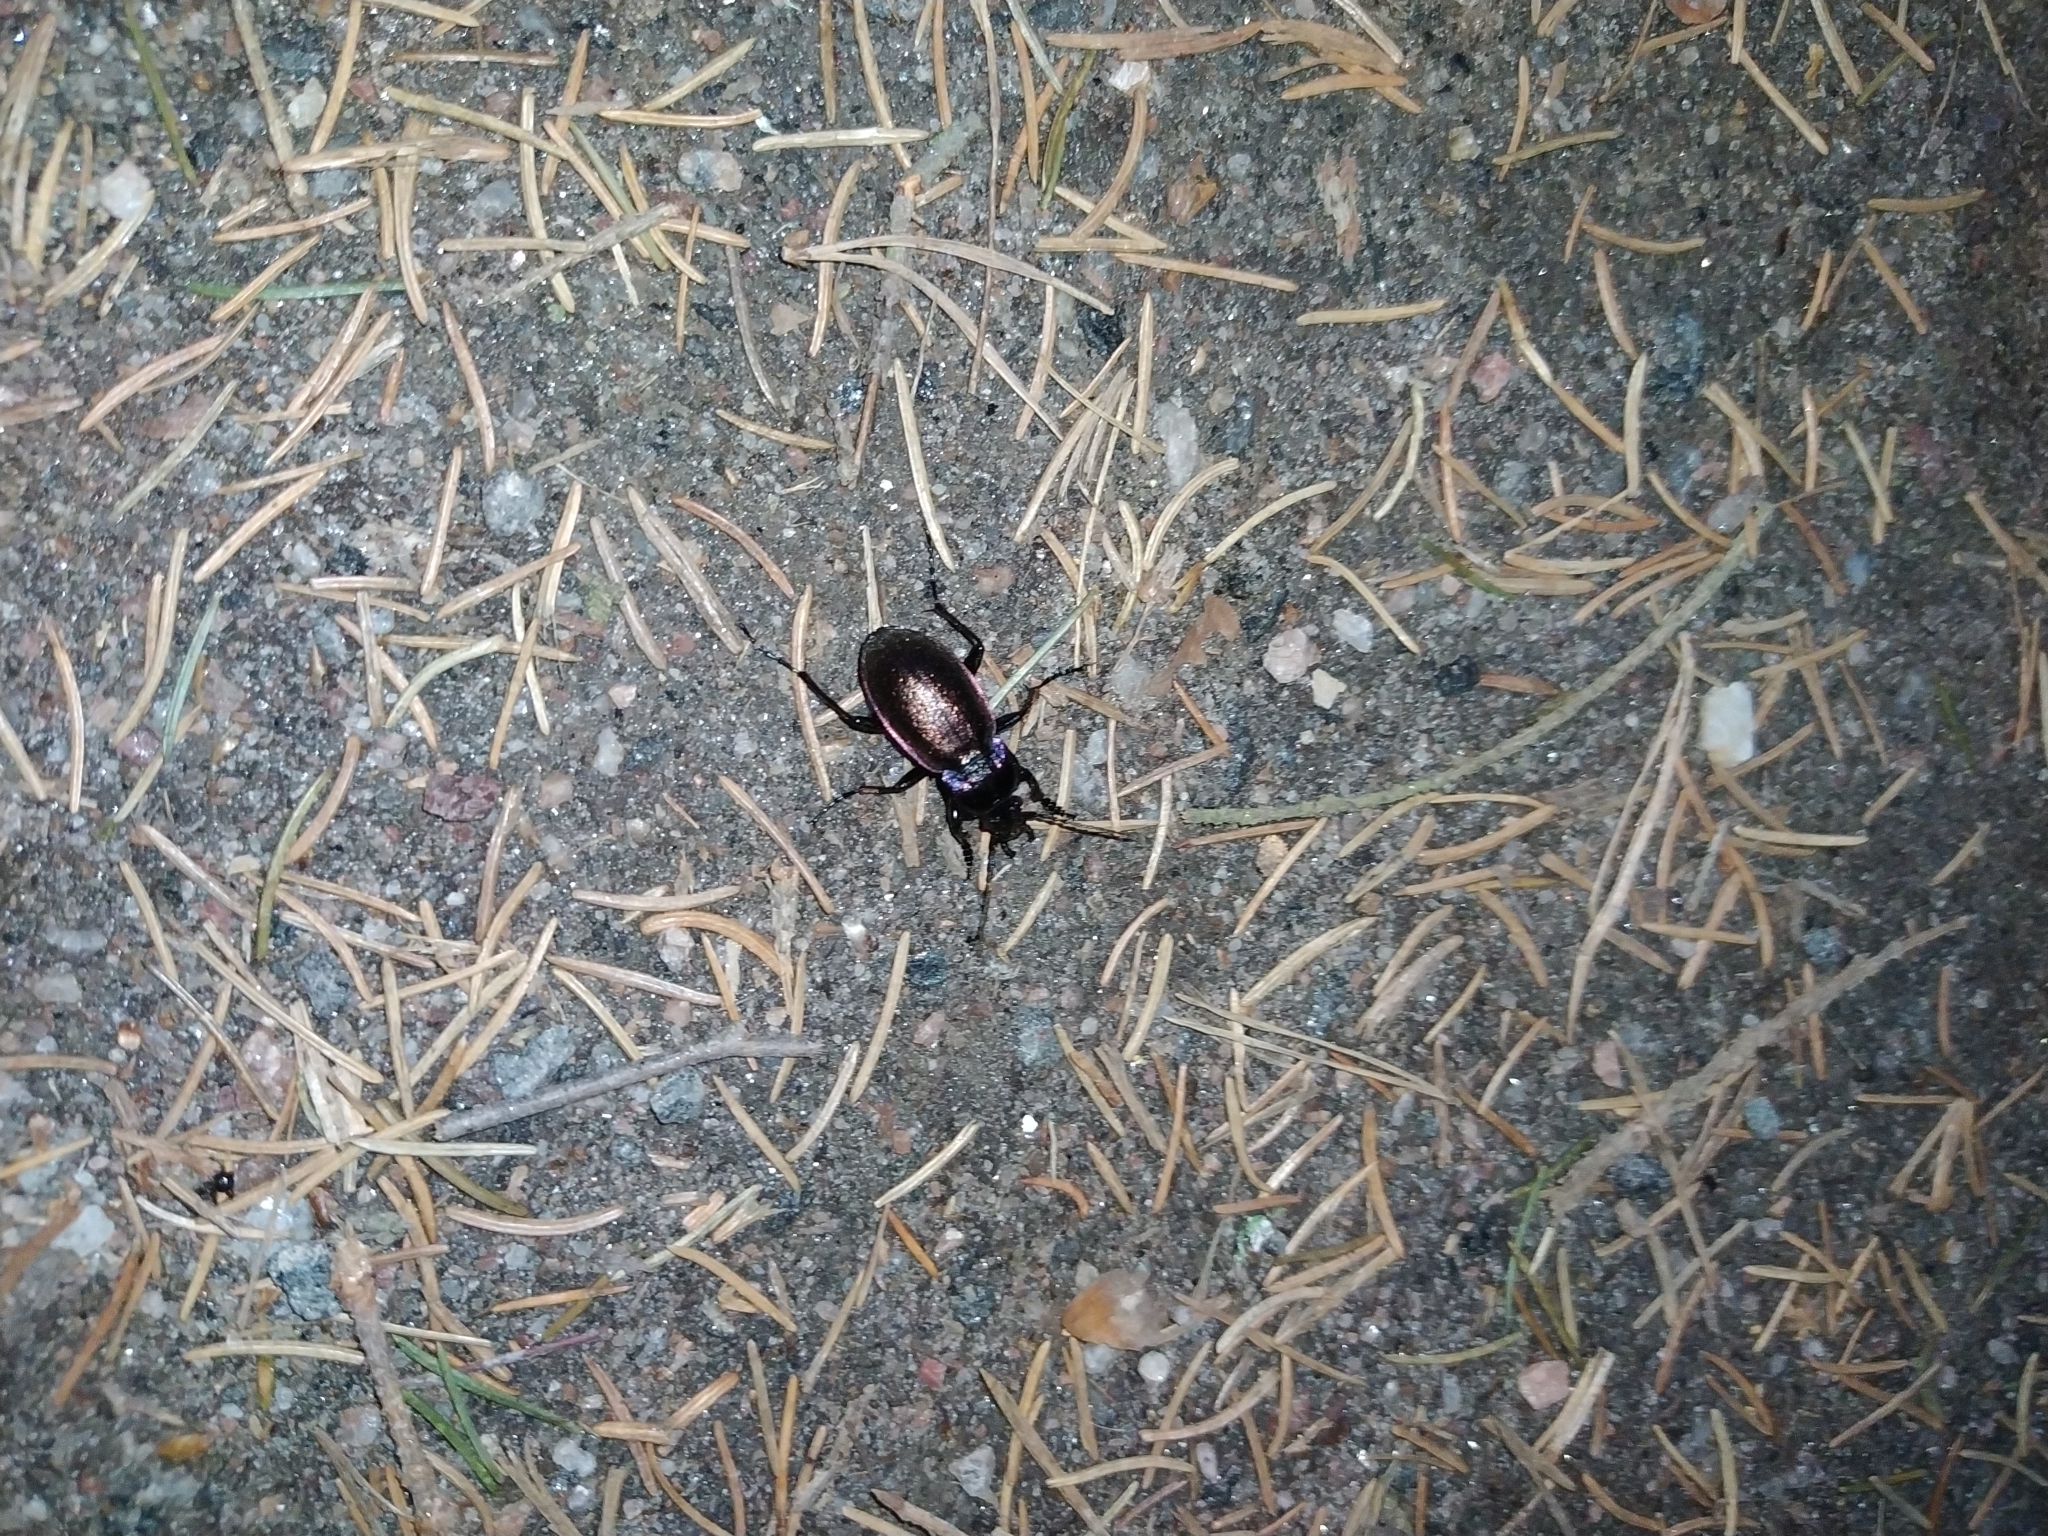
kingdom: Animalia
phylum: Arthropoda
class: Insecta
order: Coleoptera
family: Carabidae
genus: Carabus
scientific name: Carabus nemoralis
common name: European ground beetle
